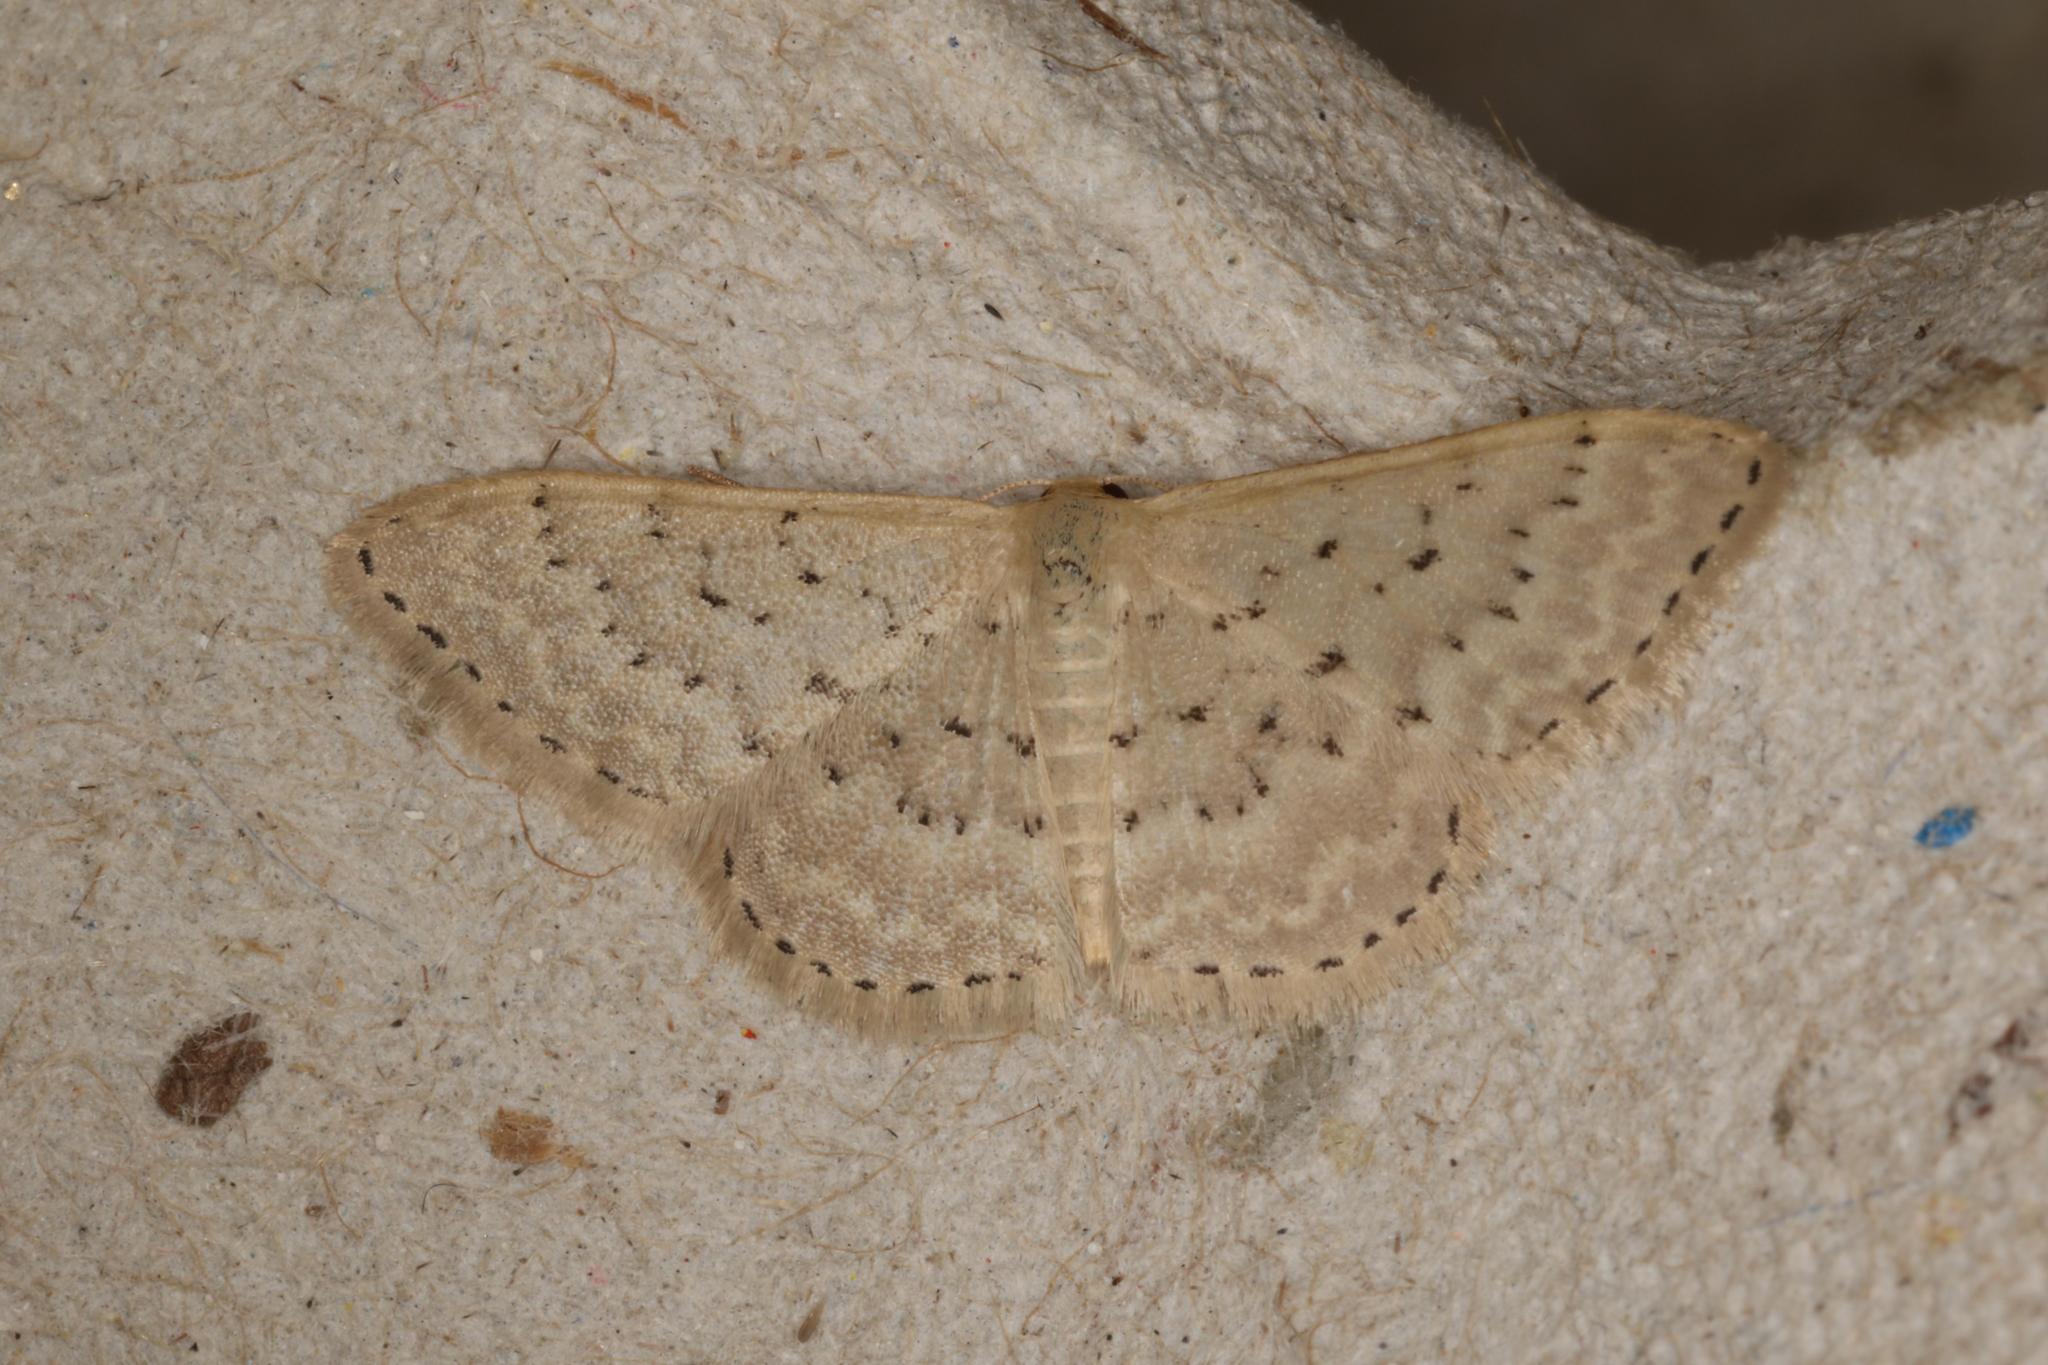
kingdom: Animalia
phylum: Arthropoda
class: Insecta
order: Lepidoptera
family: Geometridae
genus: Idaea
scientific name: Idaea philocosma
